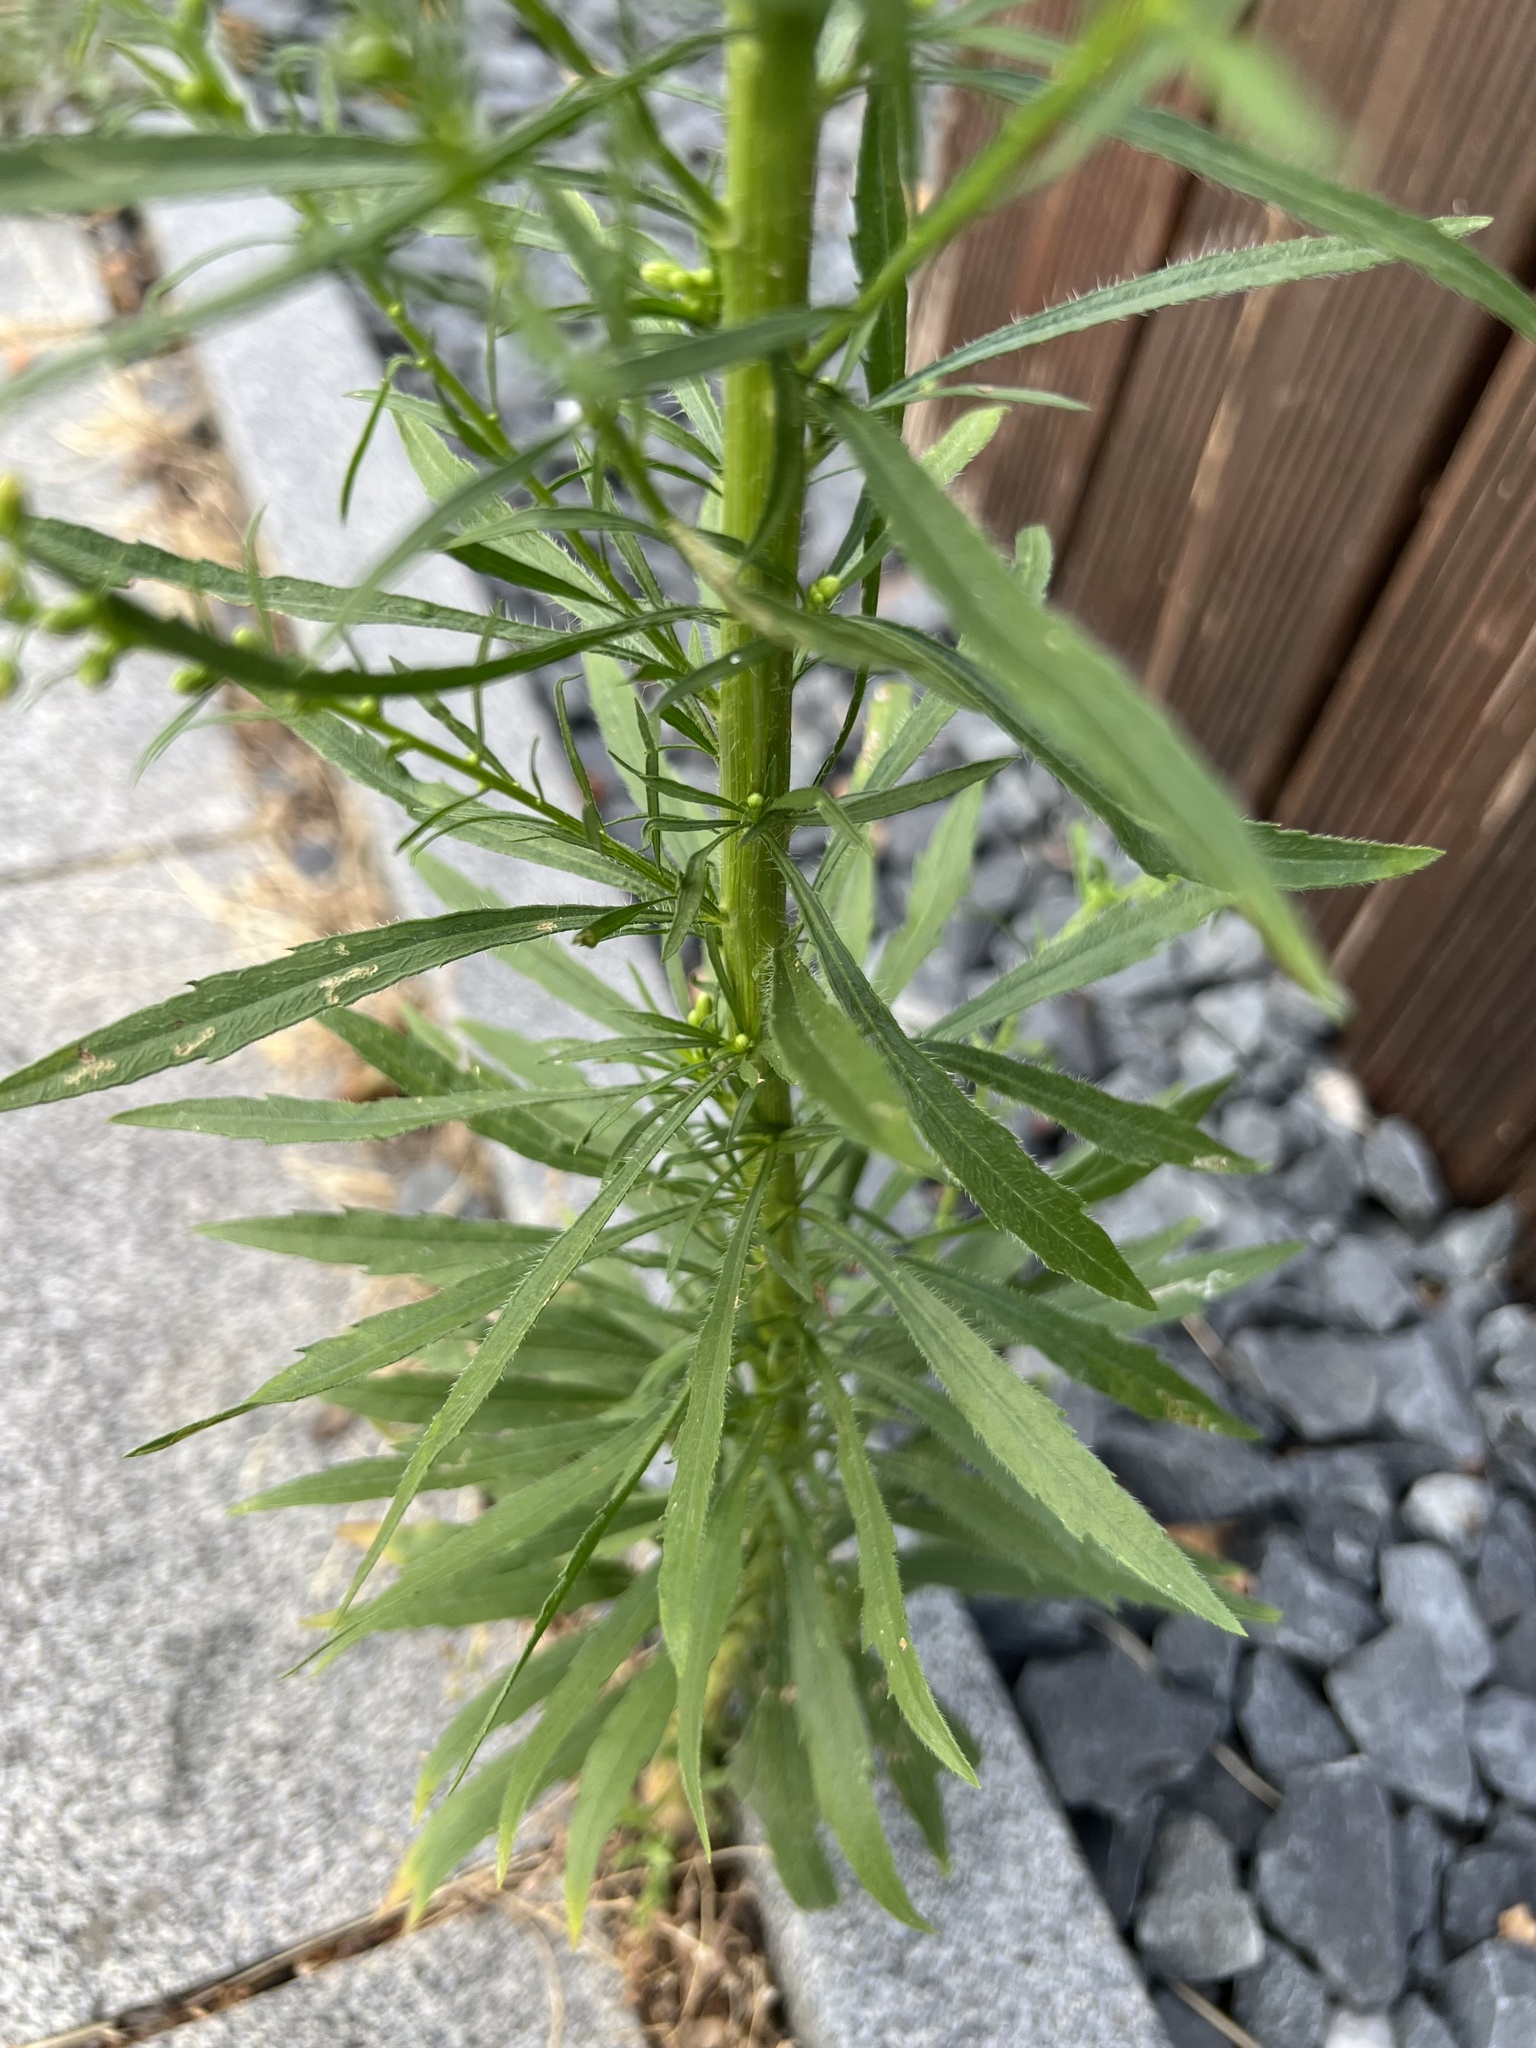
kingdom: Plantae
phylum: Tracheophyta
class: Magnoliopsida
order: Asterales
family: Asteraceae
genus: Erigeron
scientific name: Erigeron canadensis
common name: Canadian fleabane
